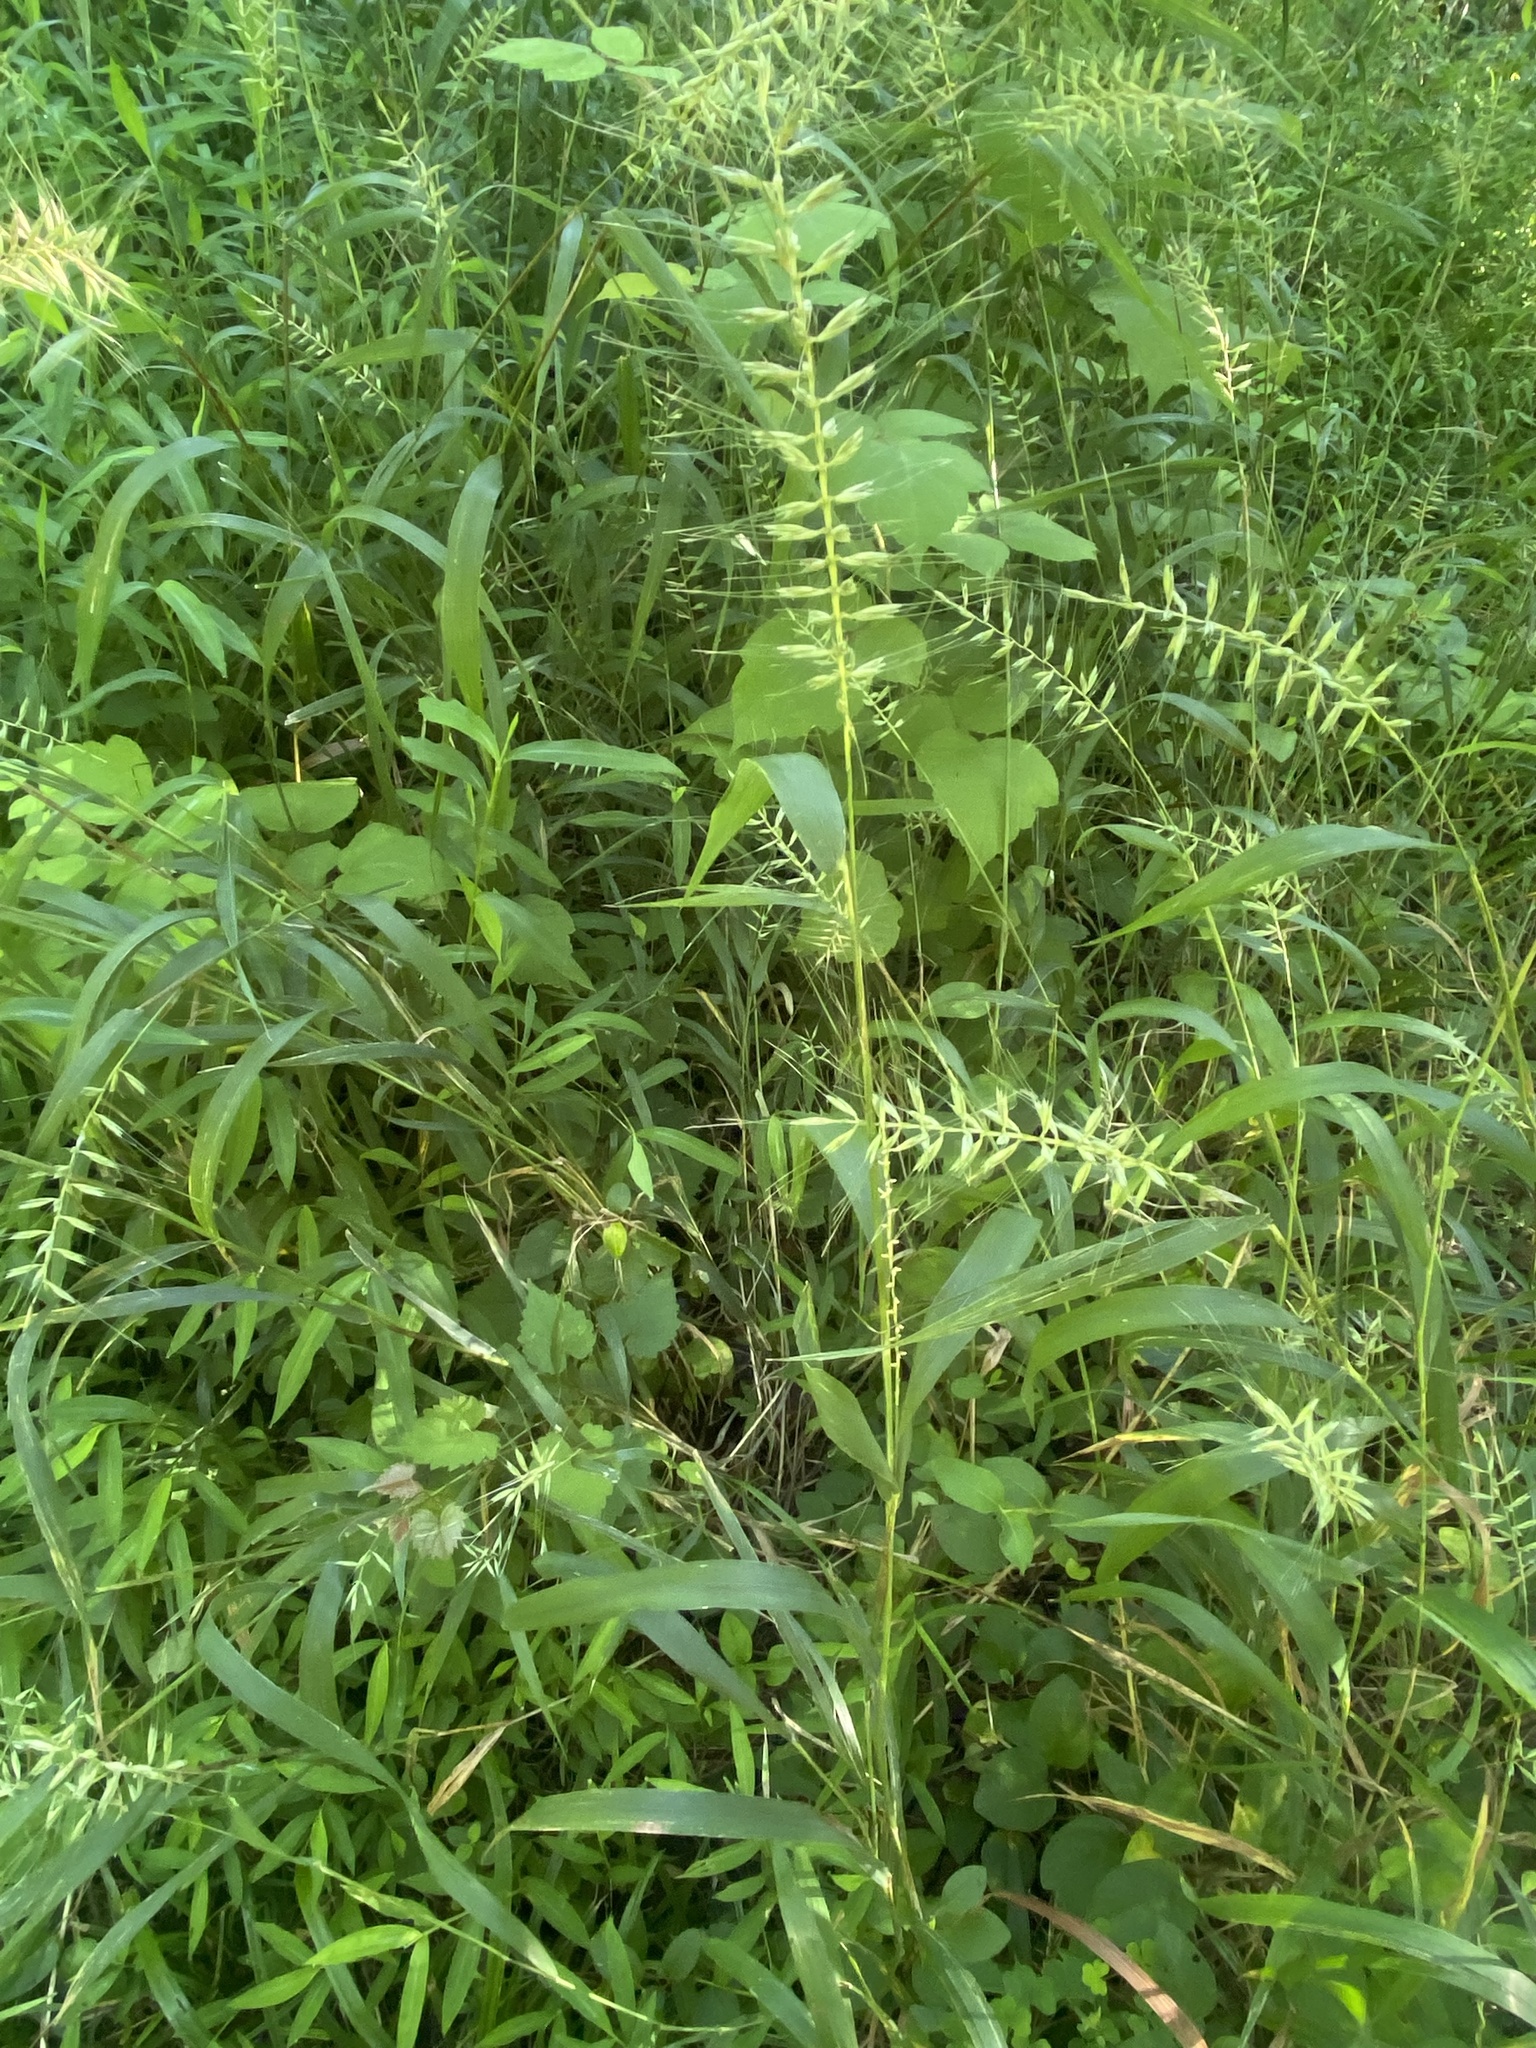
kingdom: Plantae
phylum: Tracheophyta
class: Liliopsida
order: Poales
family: Poaceae
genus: Elymus
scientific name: Elymus hystrix
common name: Bottlebrush grass
